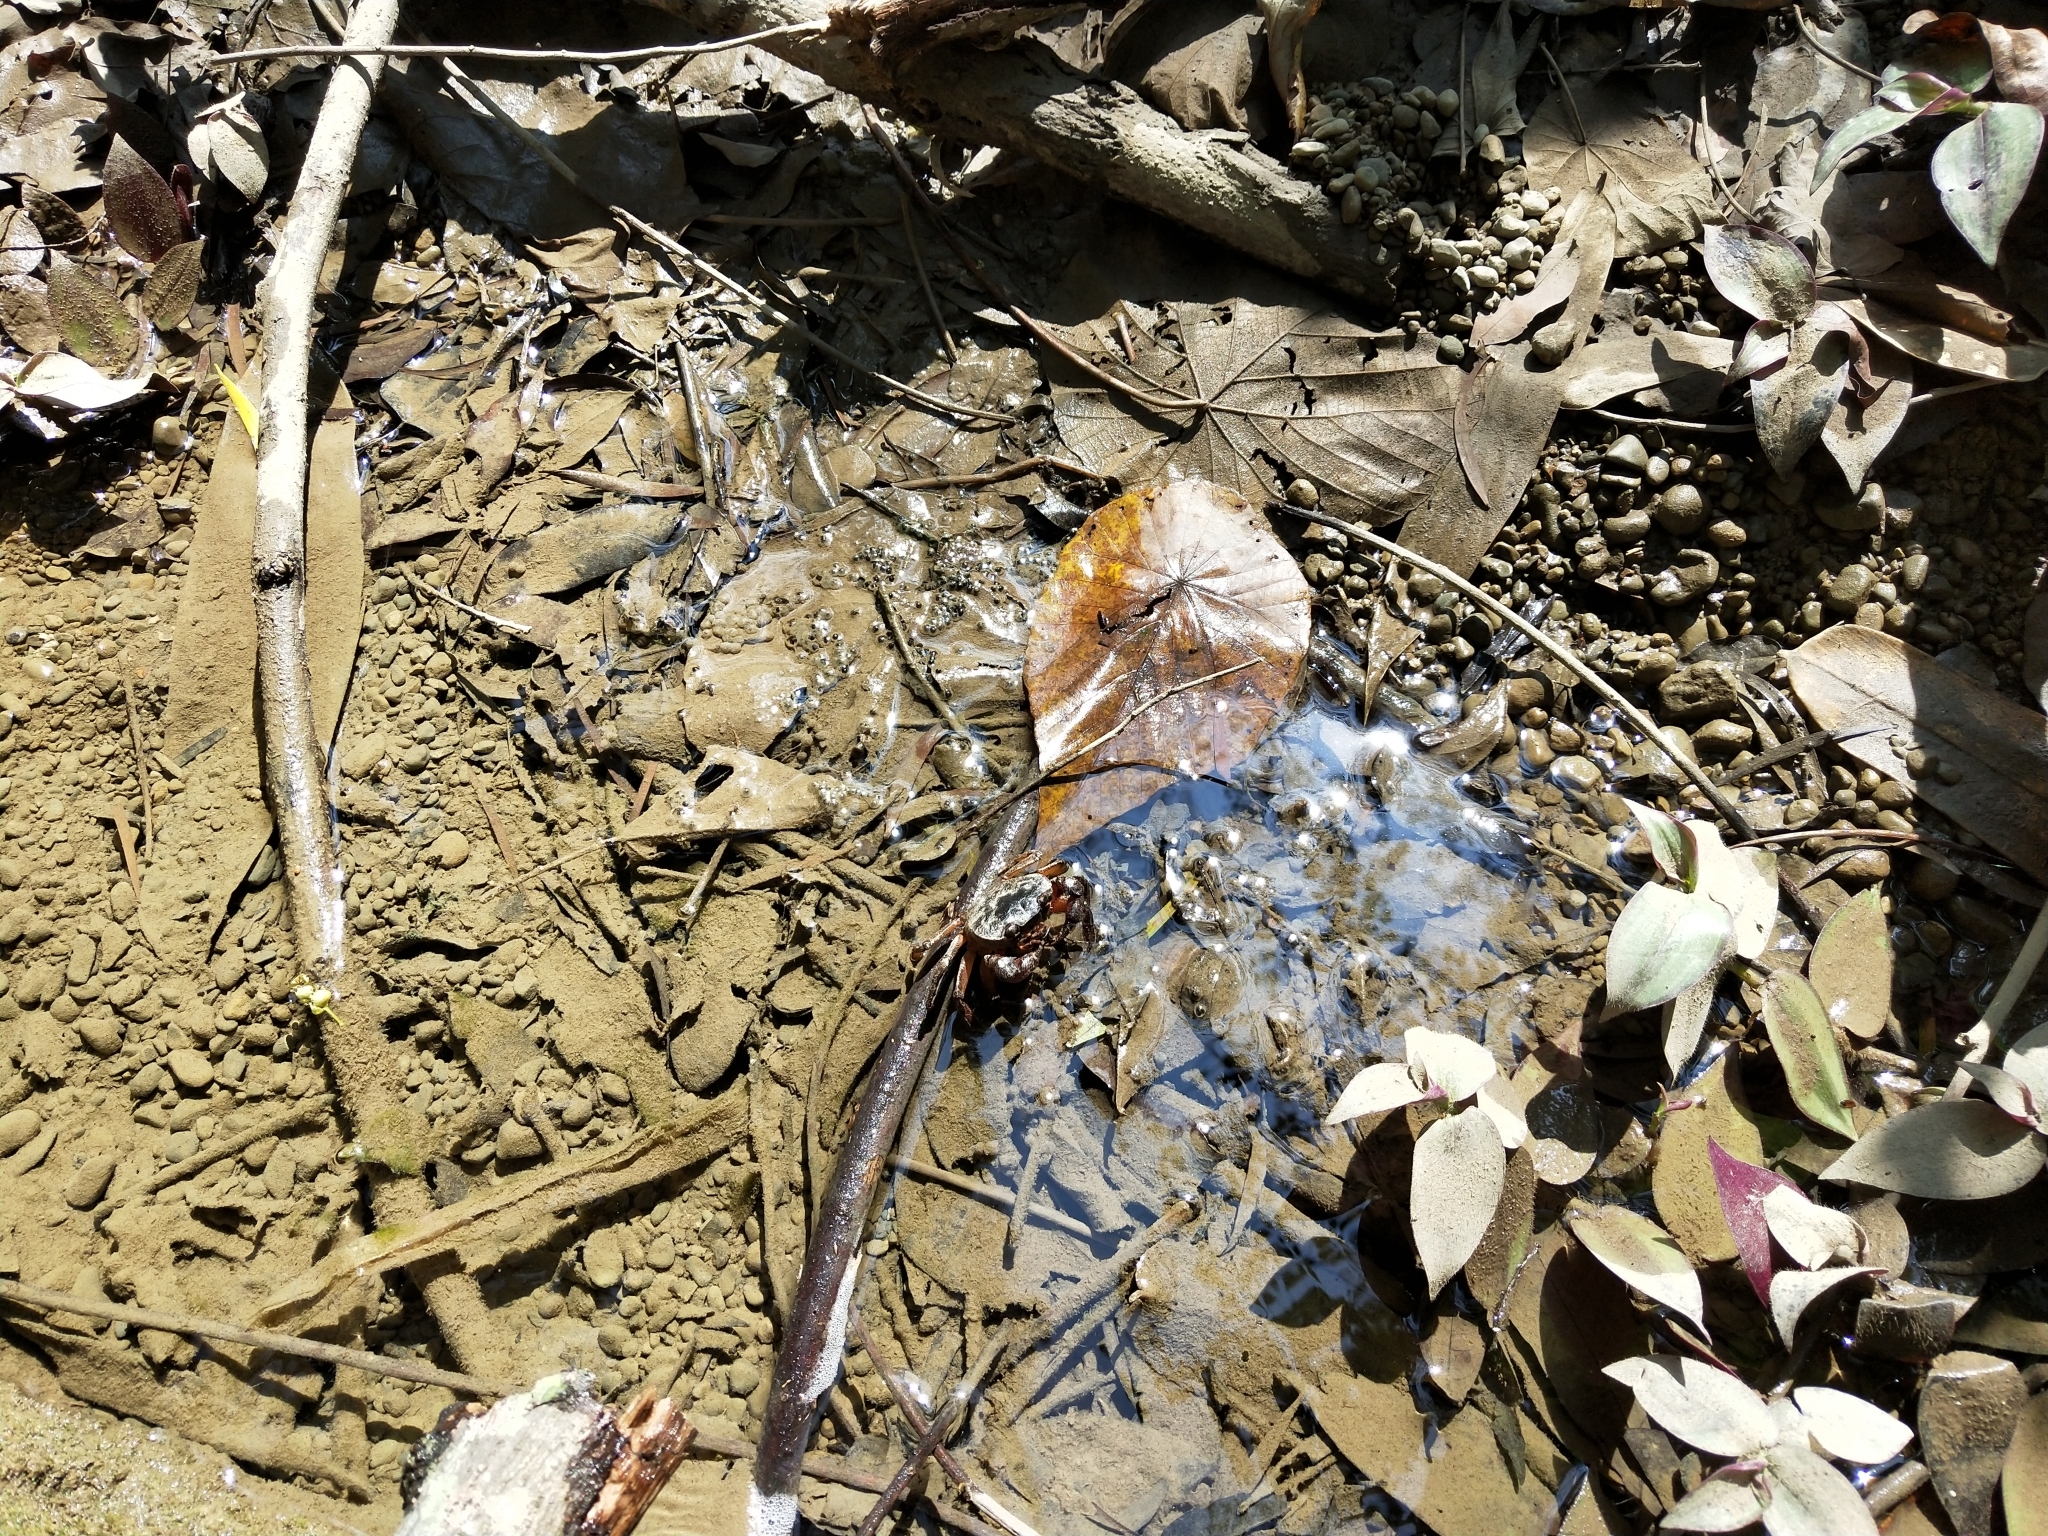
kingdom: Animalia
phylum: Arthropoda
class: Malacostraca
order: Decapoda
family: Potamidae
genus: Candidiopotamon
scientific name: Candidiopotamon rathbuni
